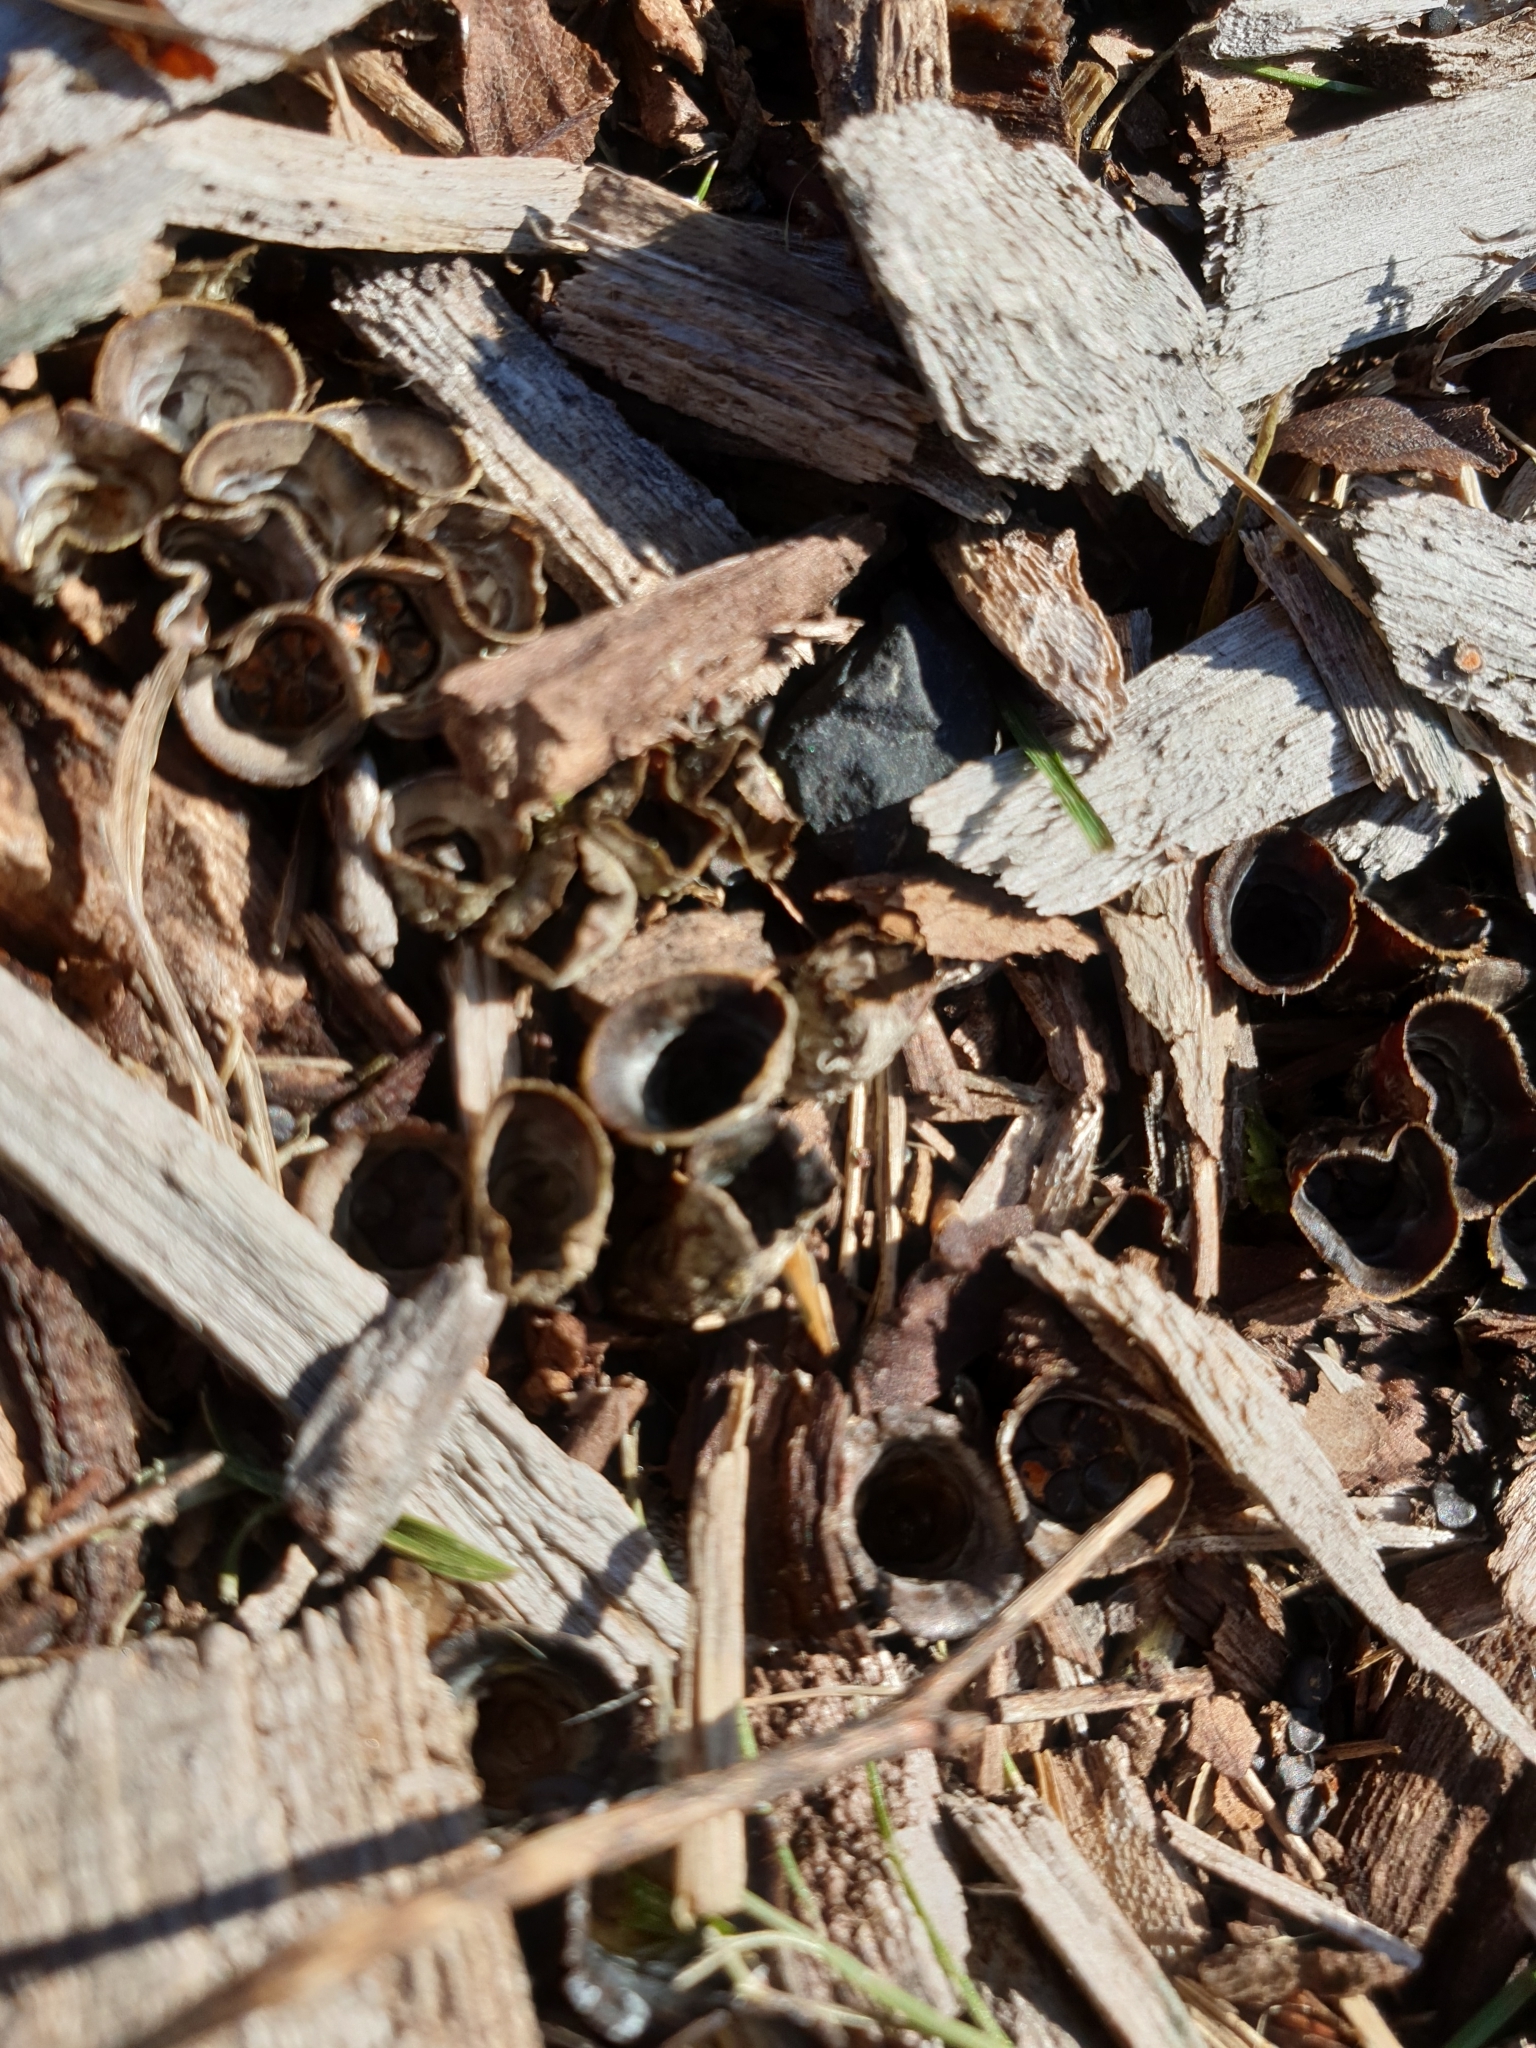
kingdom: Fungi
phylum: Basidiomycota
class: Agaricomycetes
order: Agaricales
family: Agaricaceae
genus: Cyathus
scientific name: Cyathus olla
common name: Field bird's nest
